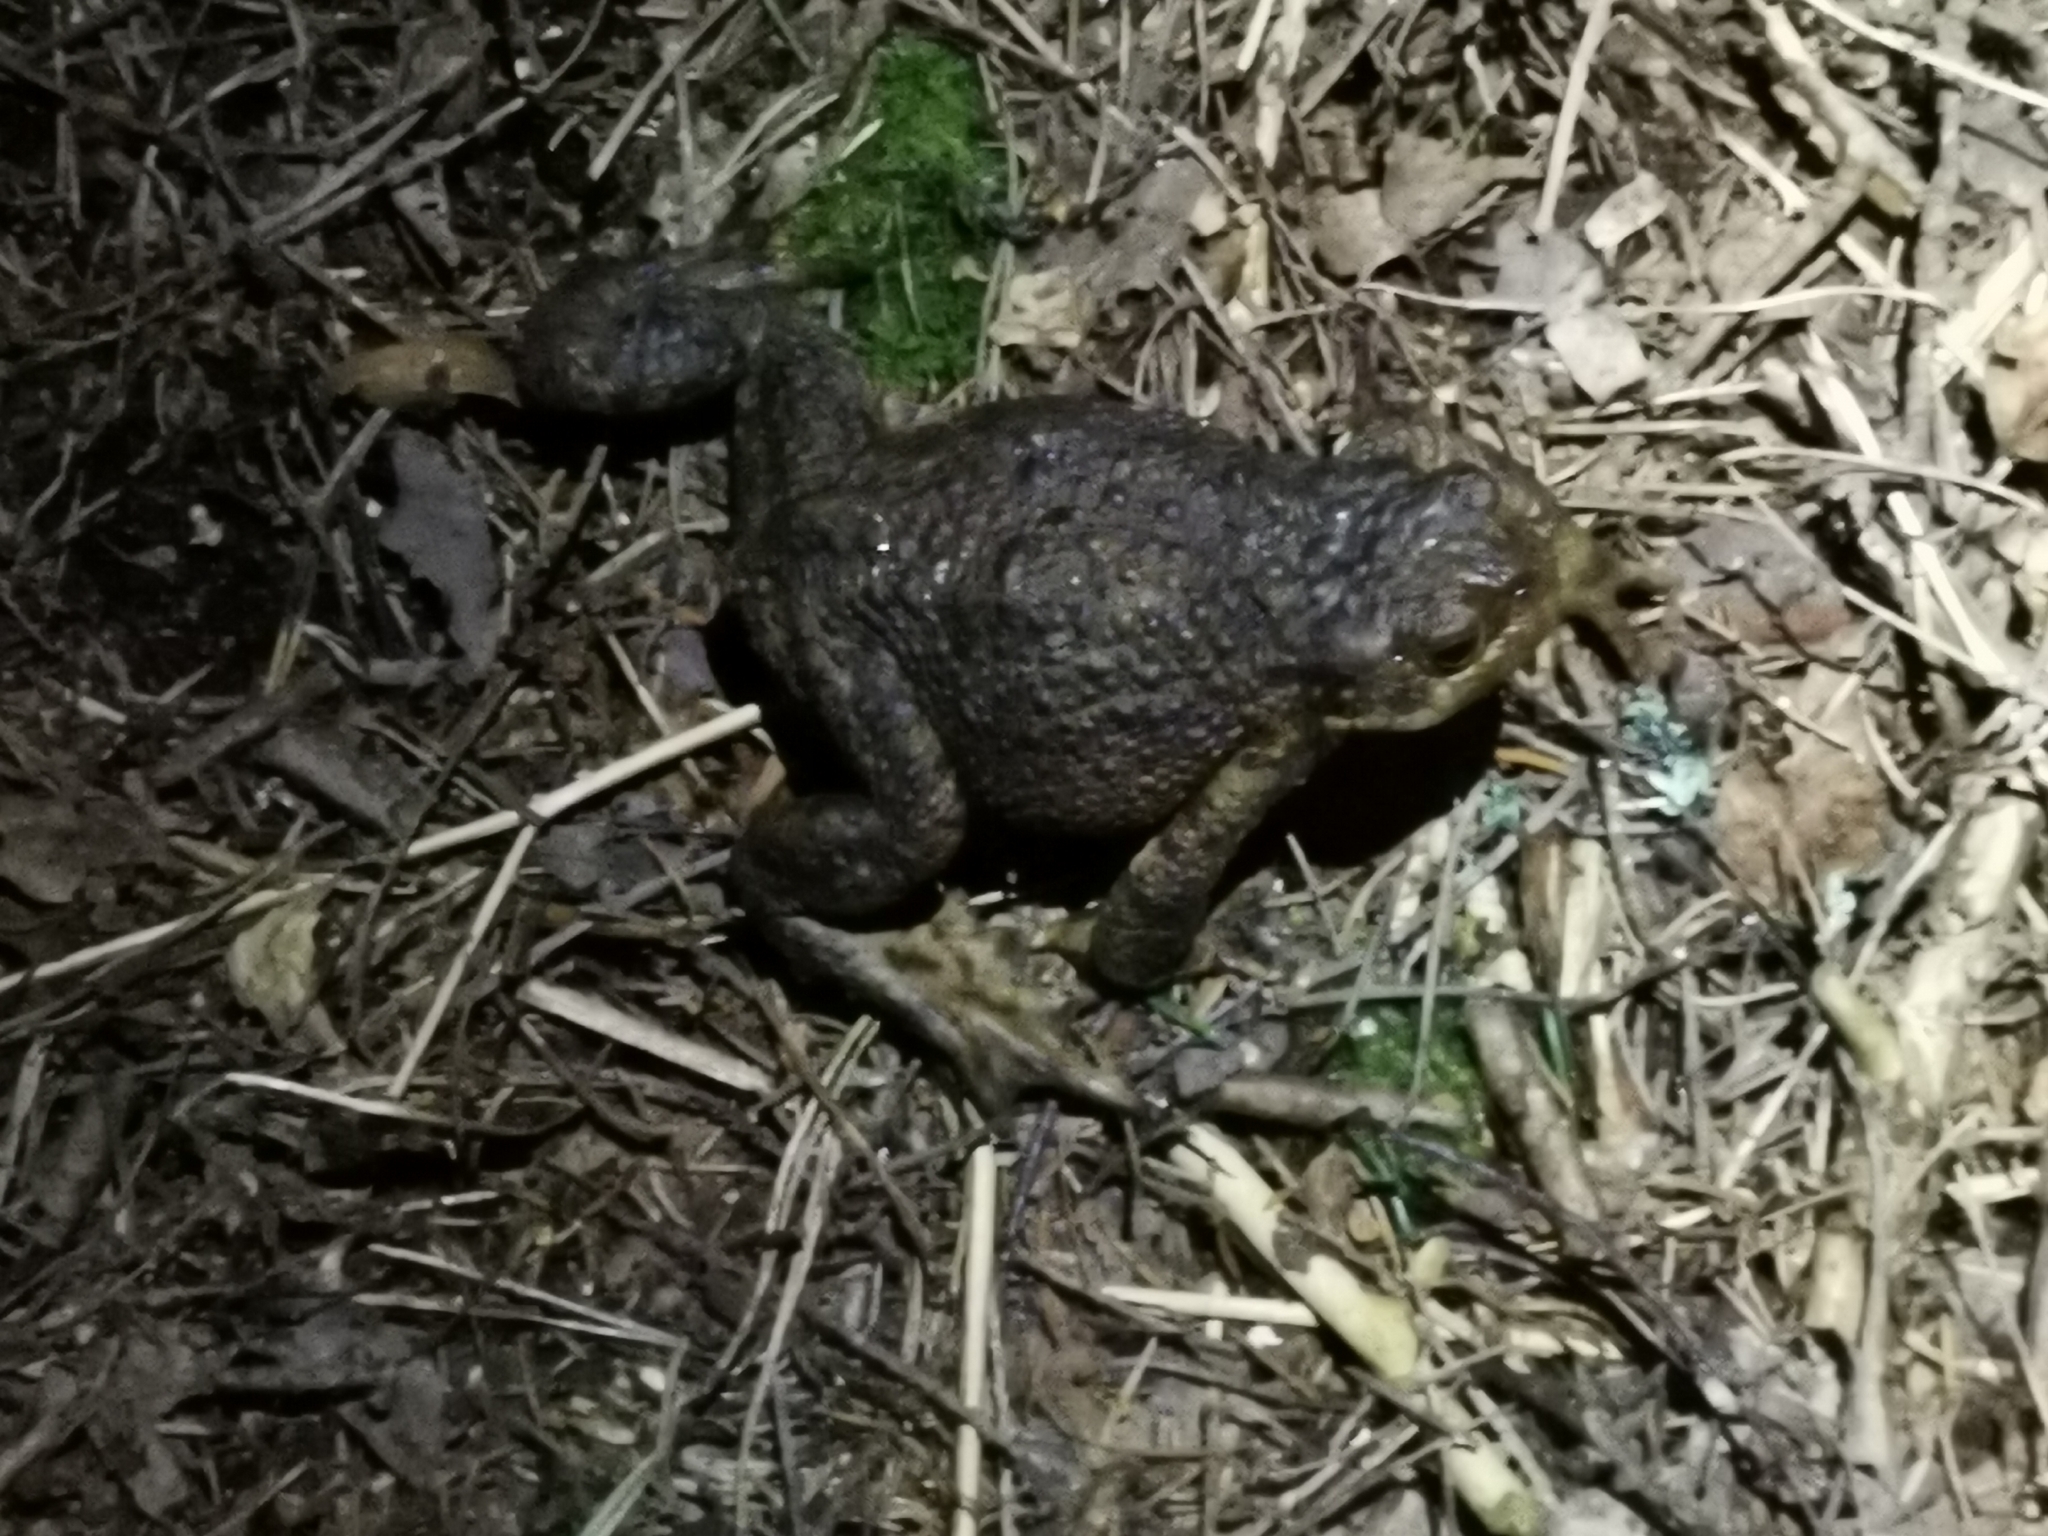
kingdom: Animalia
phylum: Chordata
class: Amphibia
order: Anura
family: Bufonidae
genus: Bufo
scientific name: Bufo bufo
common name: Common toad
